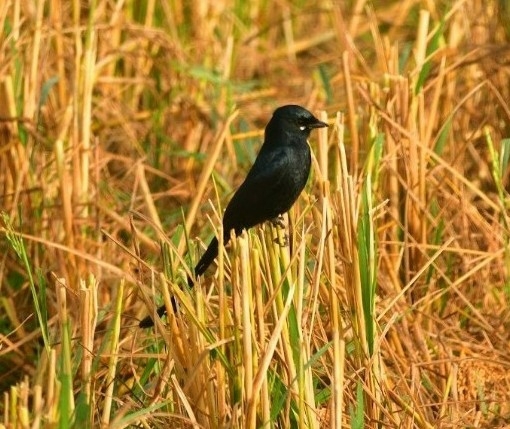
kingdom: Animalia
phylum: Chordata
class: Aves
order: Passeriformes
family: Dicruridae
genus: Dicrurus
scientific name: Dicrurus macrocercus
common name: Black drongo
